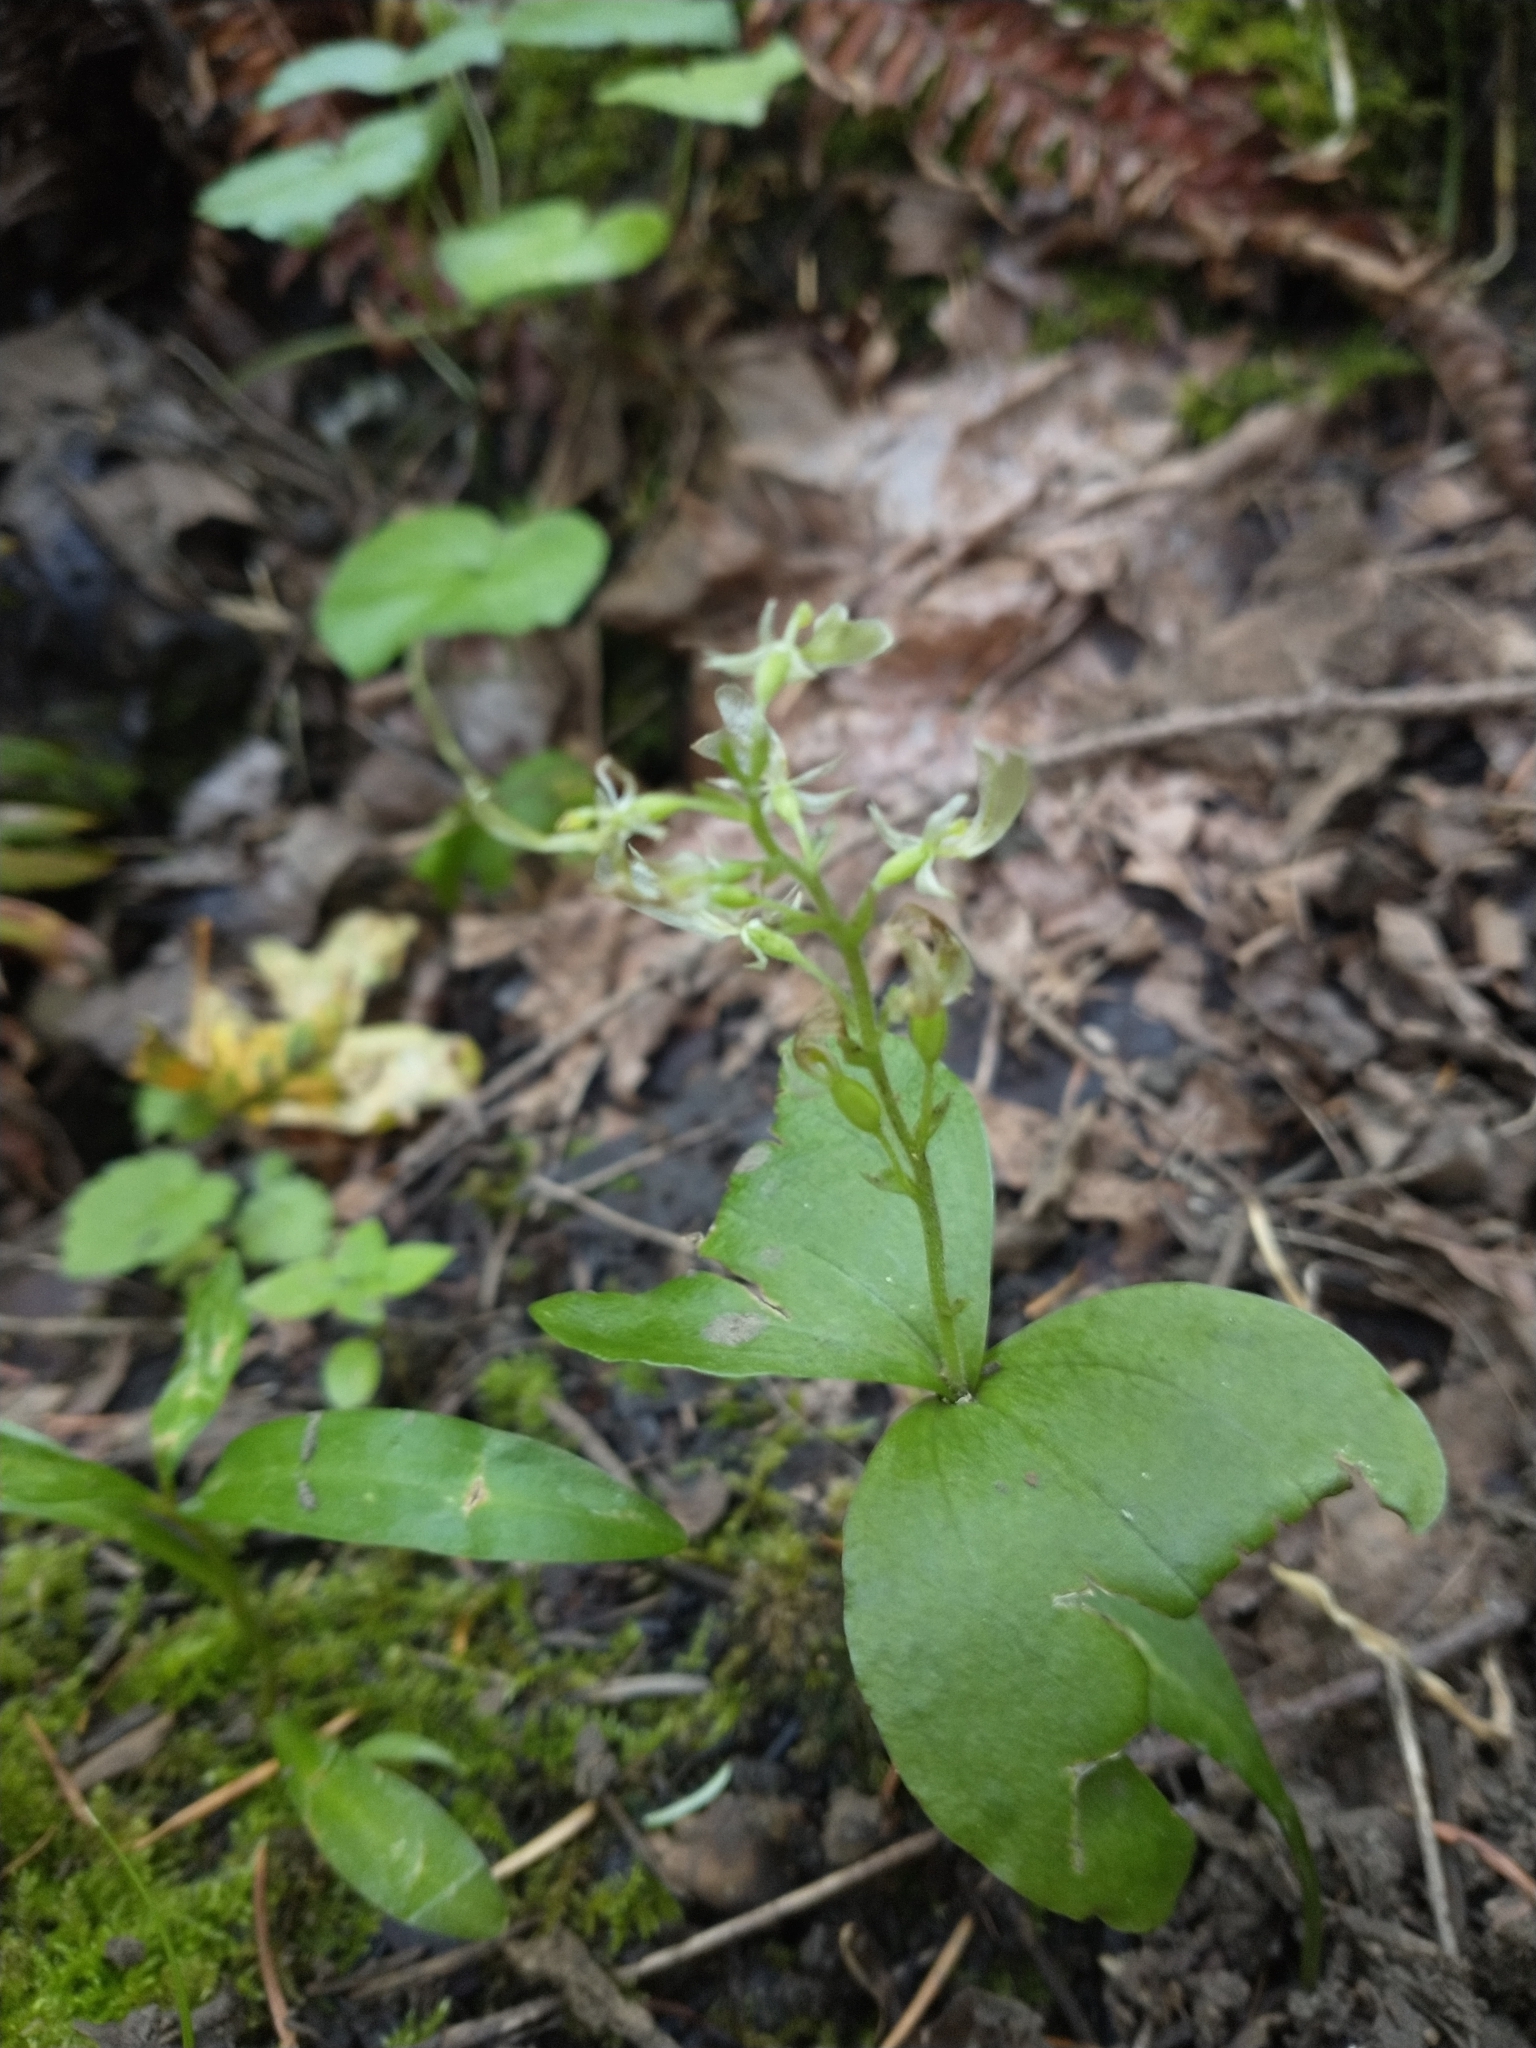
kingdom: Plantae
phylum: Tracheophyta
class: Liliopsida
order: Asparagales
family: Orchidaceae
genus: Neottia
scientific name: Neottia convallarioides
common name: Broadleaf twayblade
